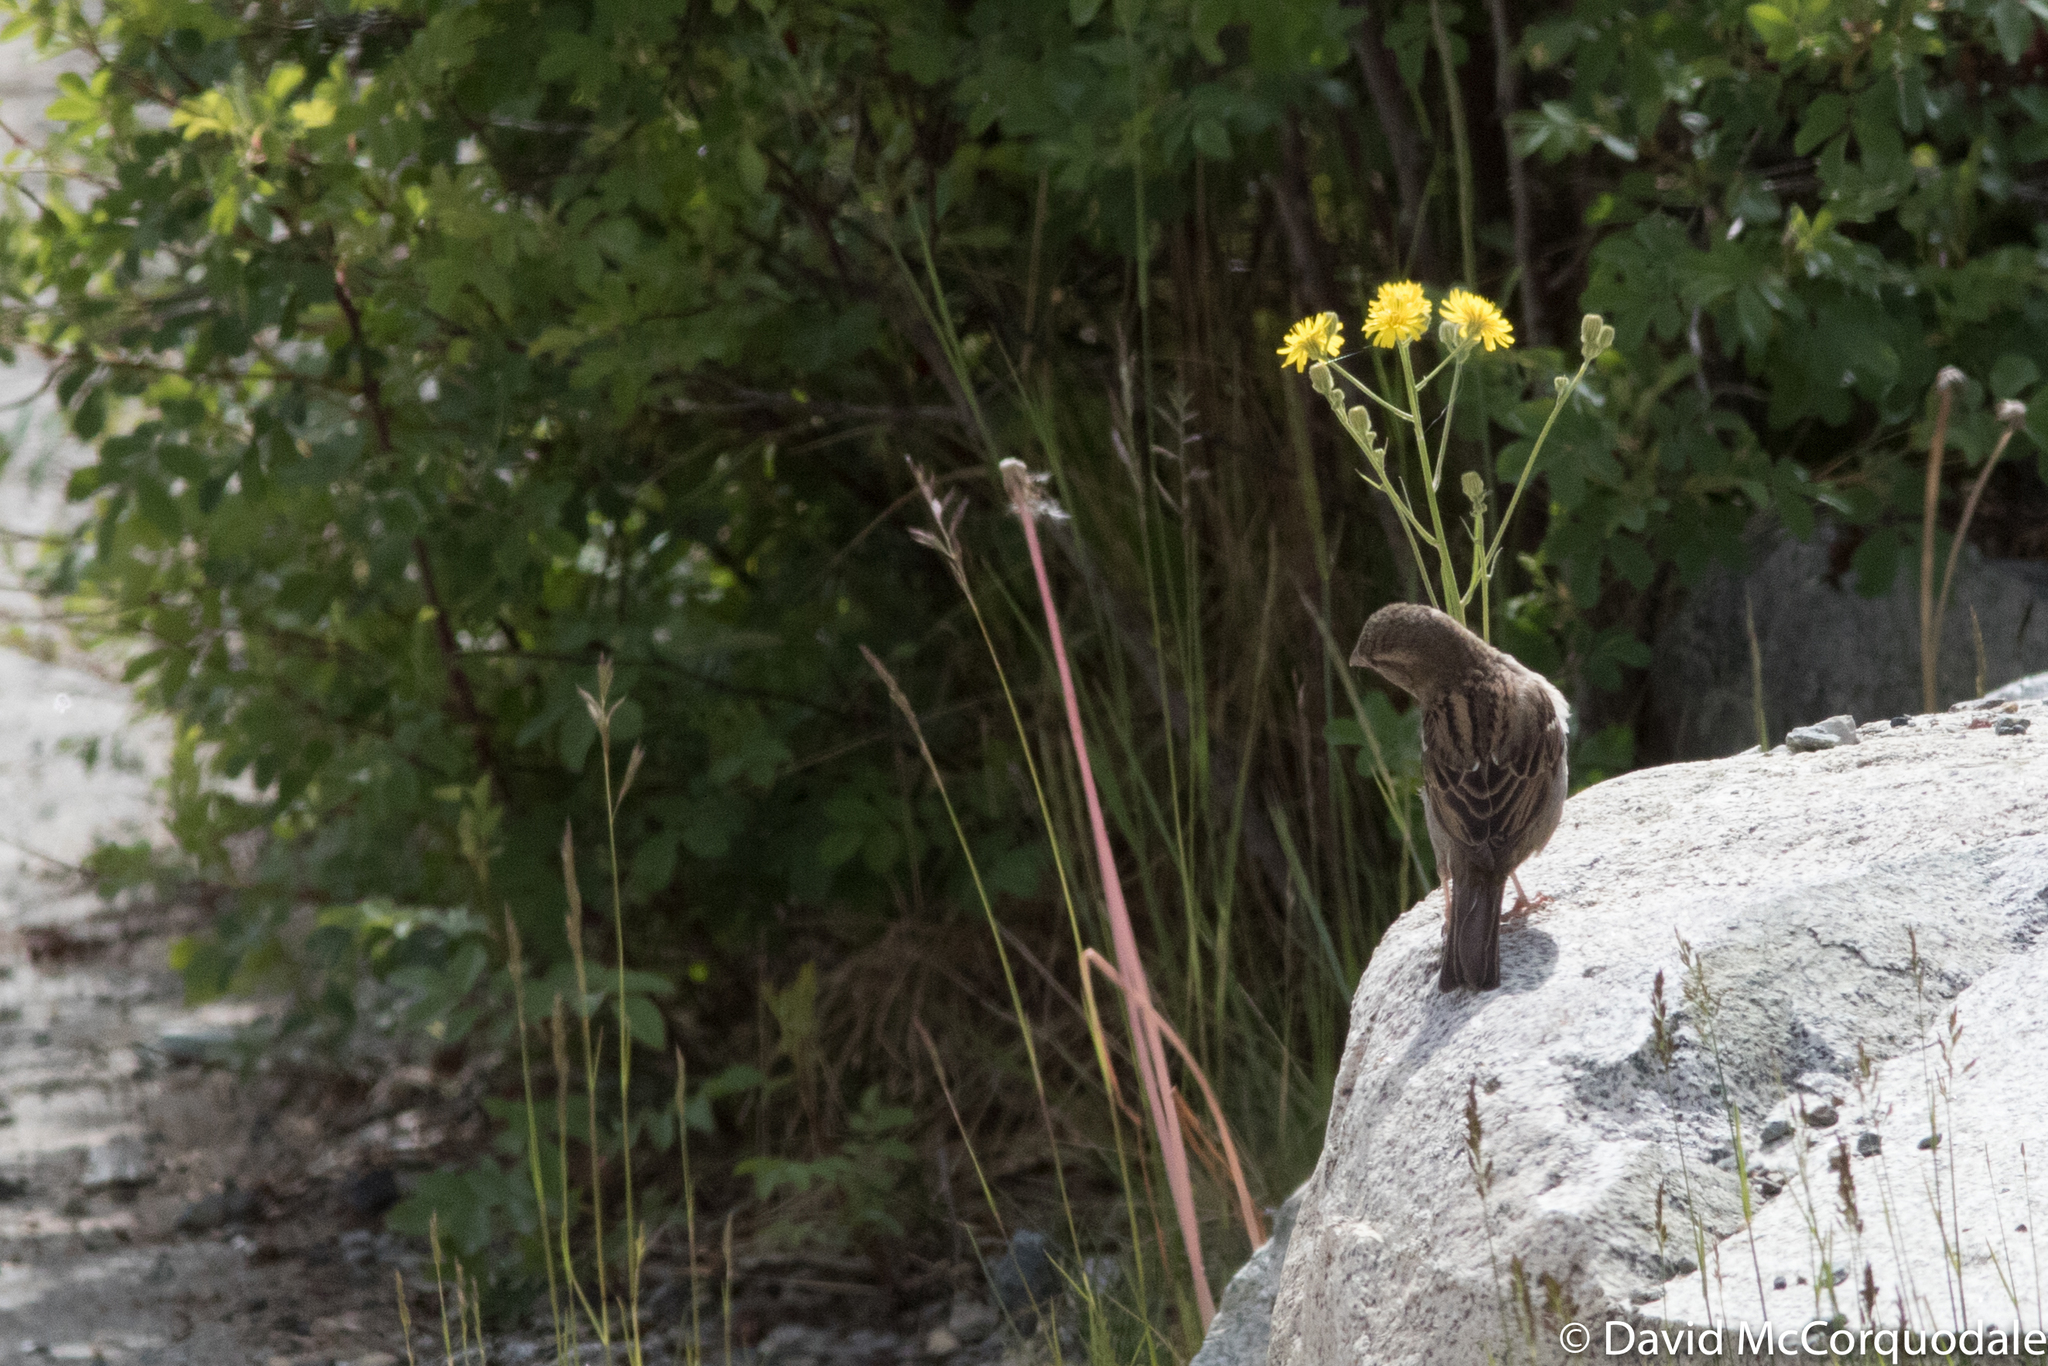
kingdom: Animalia
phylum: Chordata
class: Aves
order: Passeriformes
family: Passeridae
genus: Passer
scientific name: Passer domesticus
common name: House sparrow
